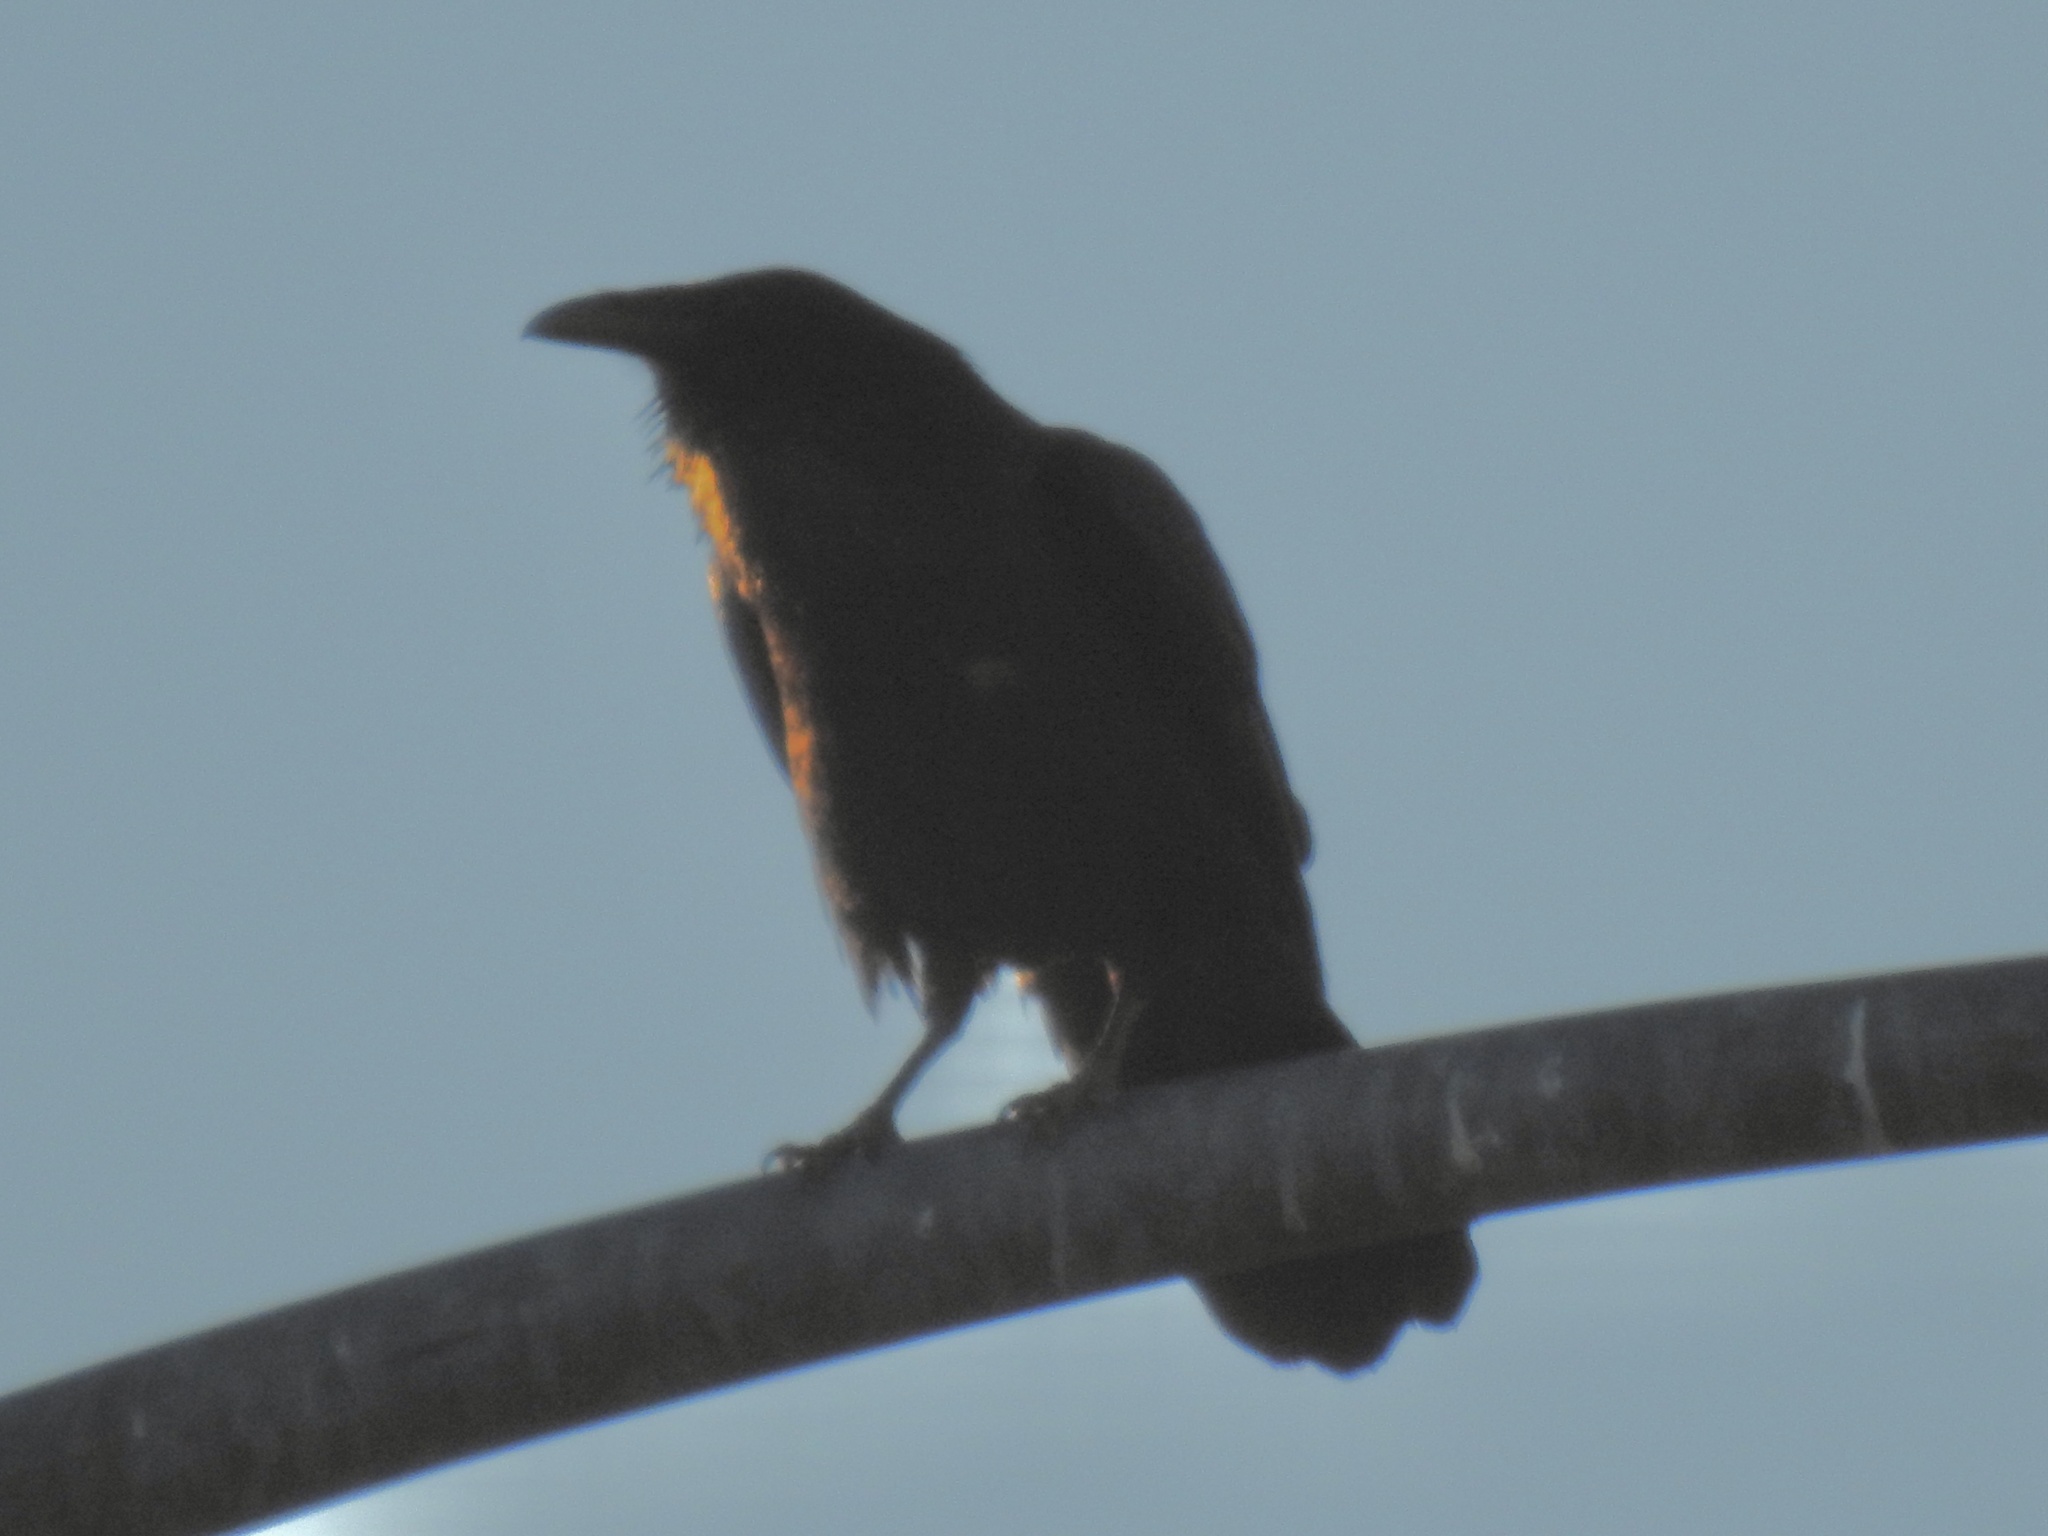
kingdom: Animalia
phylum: Chordata
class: Aves
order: Passeriformes
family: Corvidae
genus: Corvus
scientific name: Corvus corax
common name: Common raven
